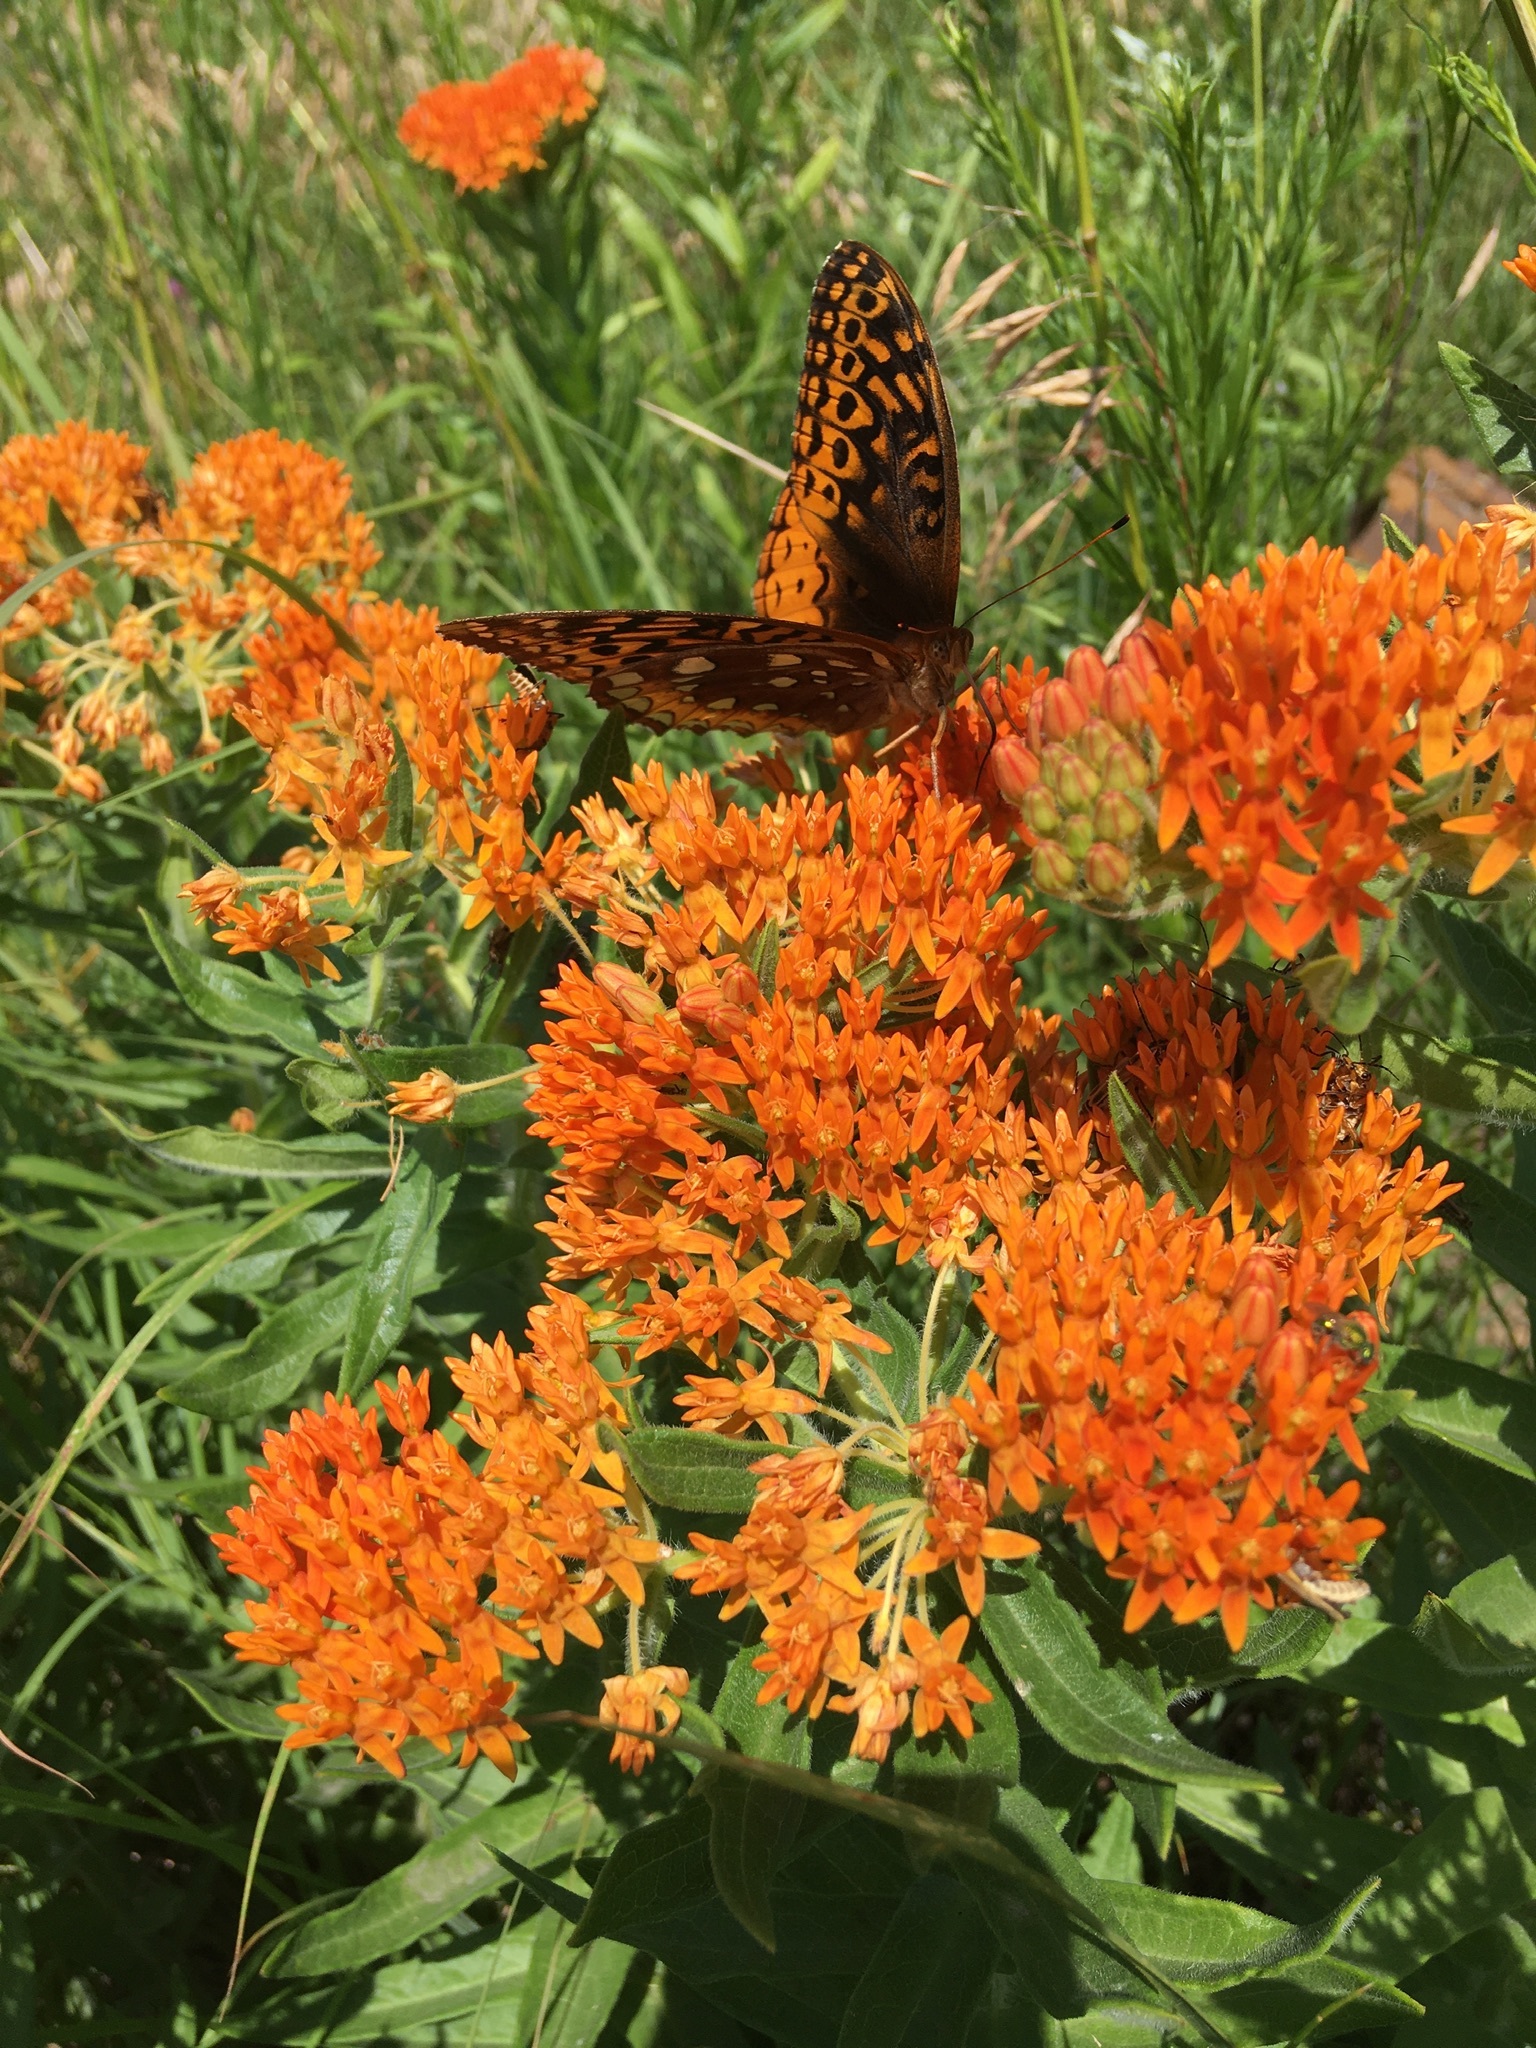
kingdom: Animalia
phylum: Arthropoda
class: Insecta
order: Lepidoptera
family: Nymphalidae
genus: Speyeria
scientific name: Speyeria cybele
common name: Great spangled fritillary
